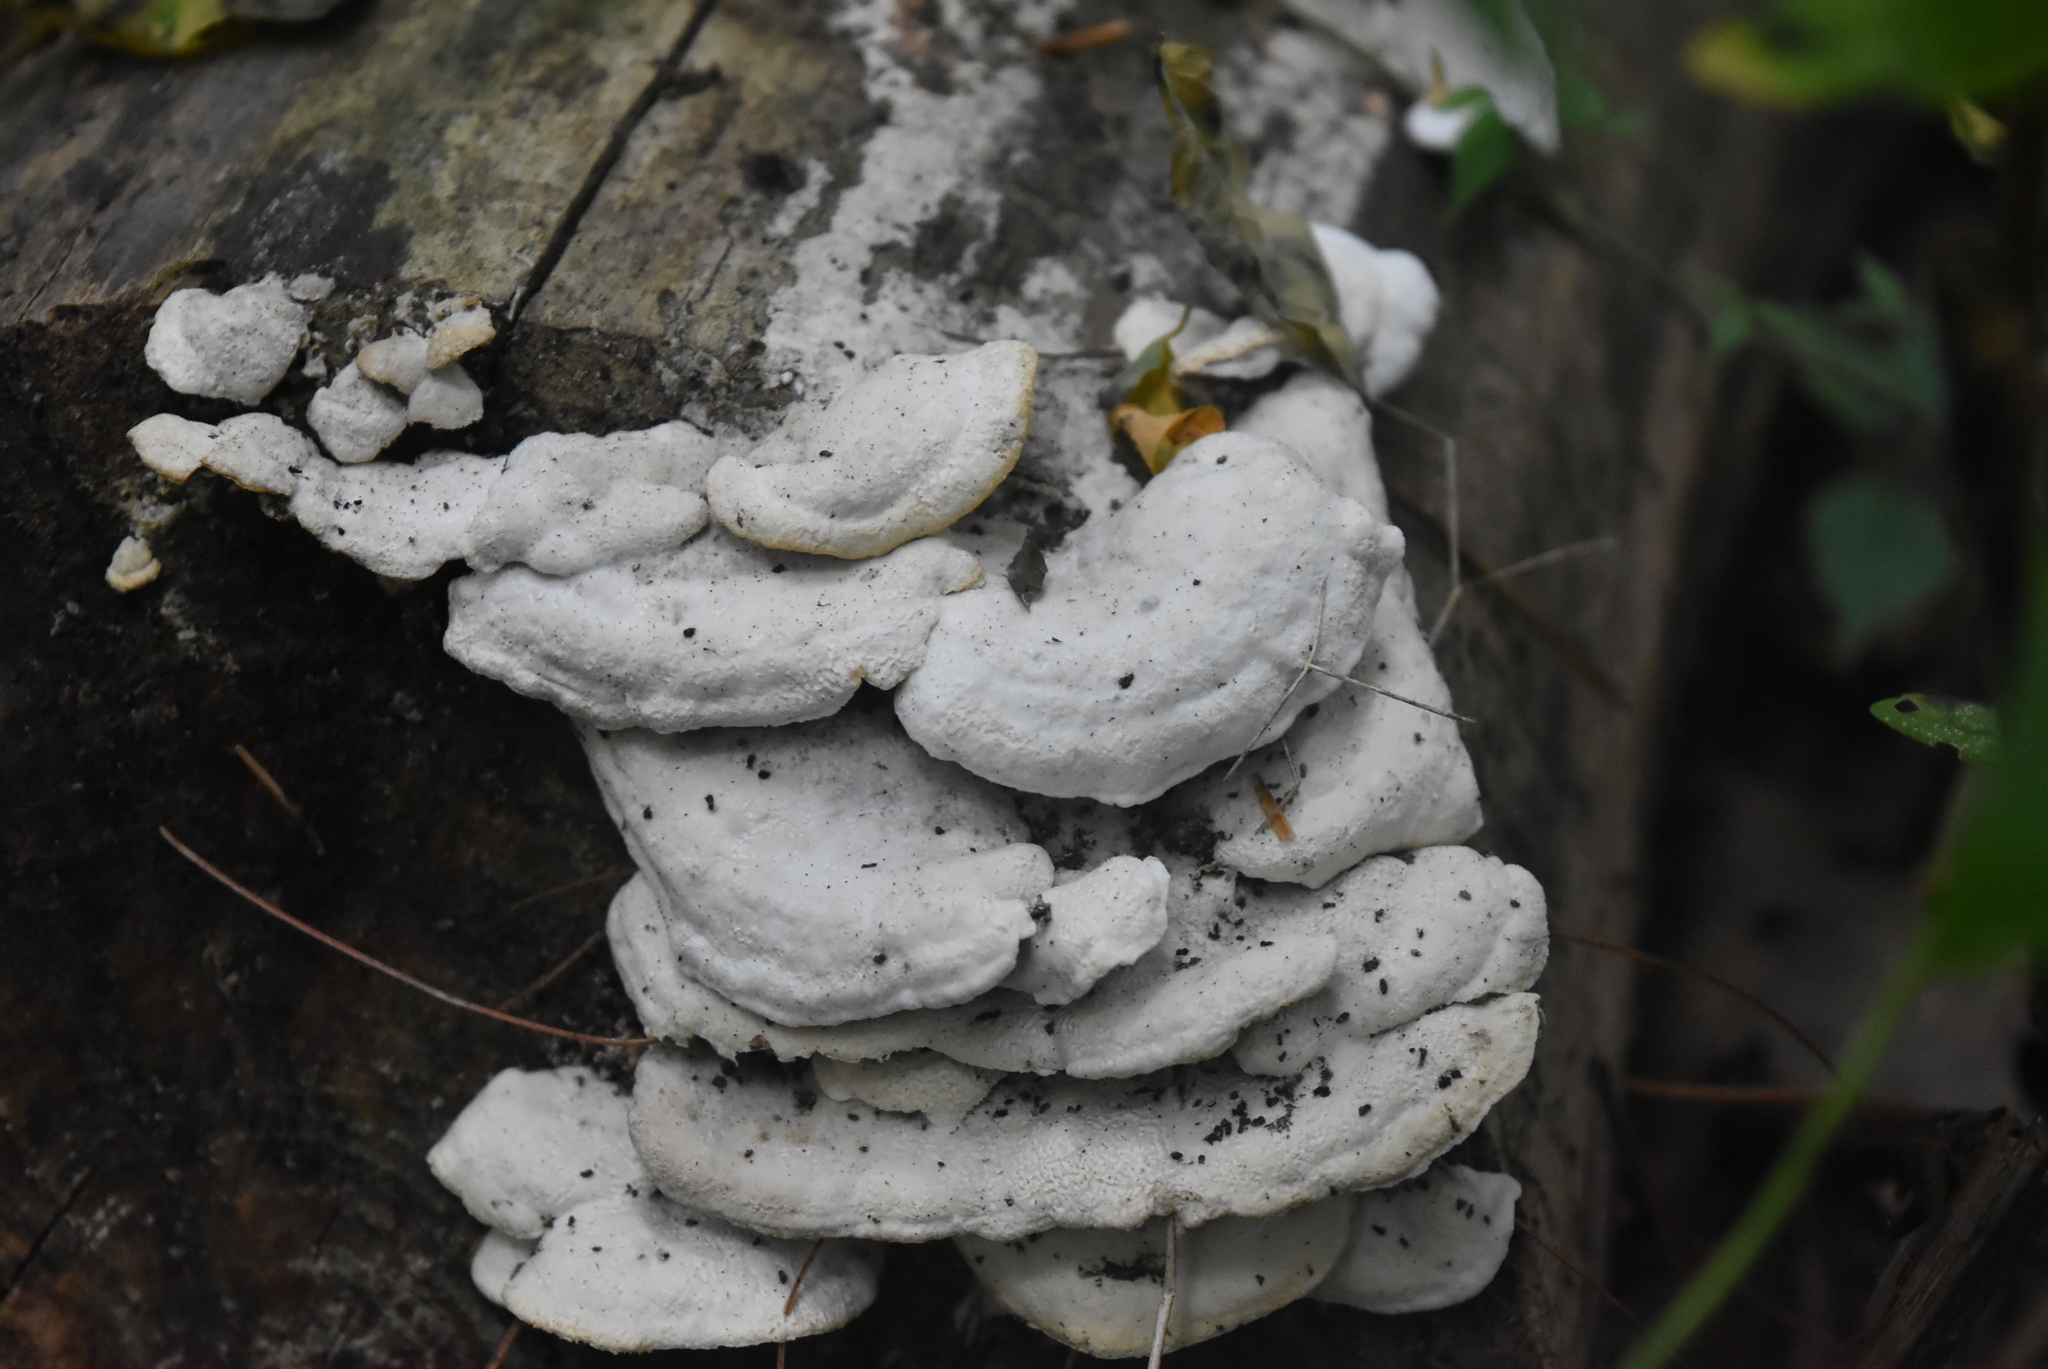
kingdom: Fungi
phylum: Basidiomycota
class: Agaricomycetes
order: Polyporales
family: Irpicaceae
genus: Vitreoporus
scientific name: Vitreoporus dichrous
